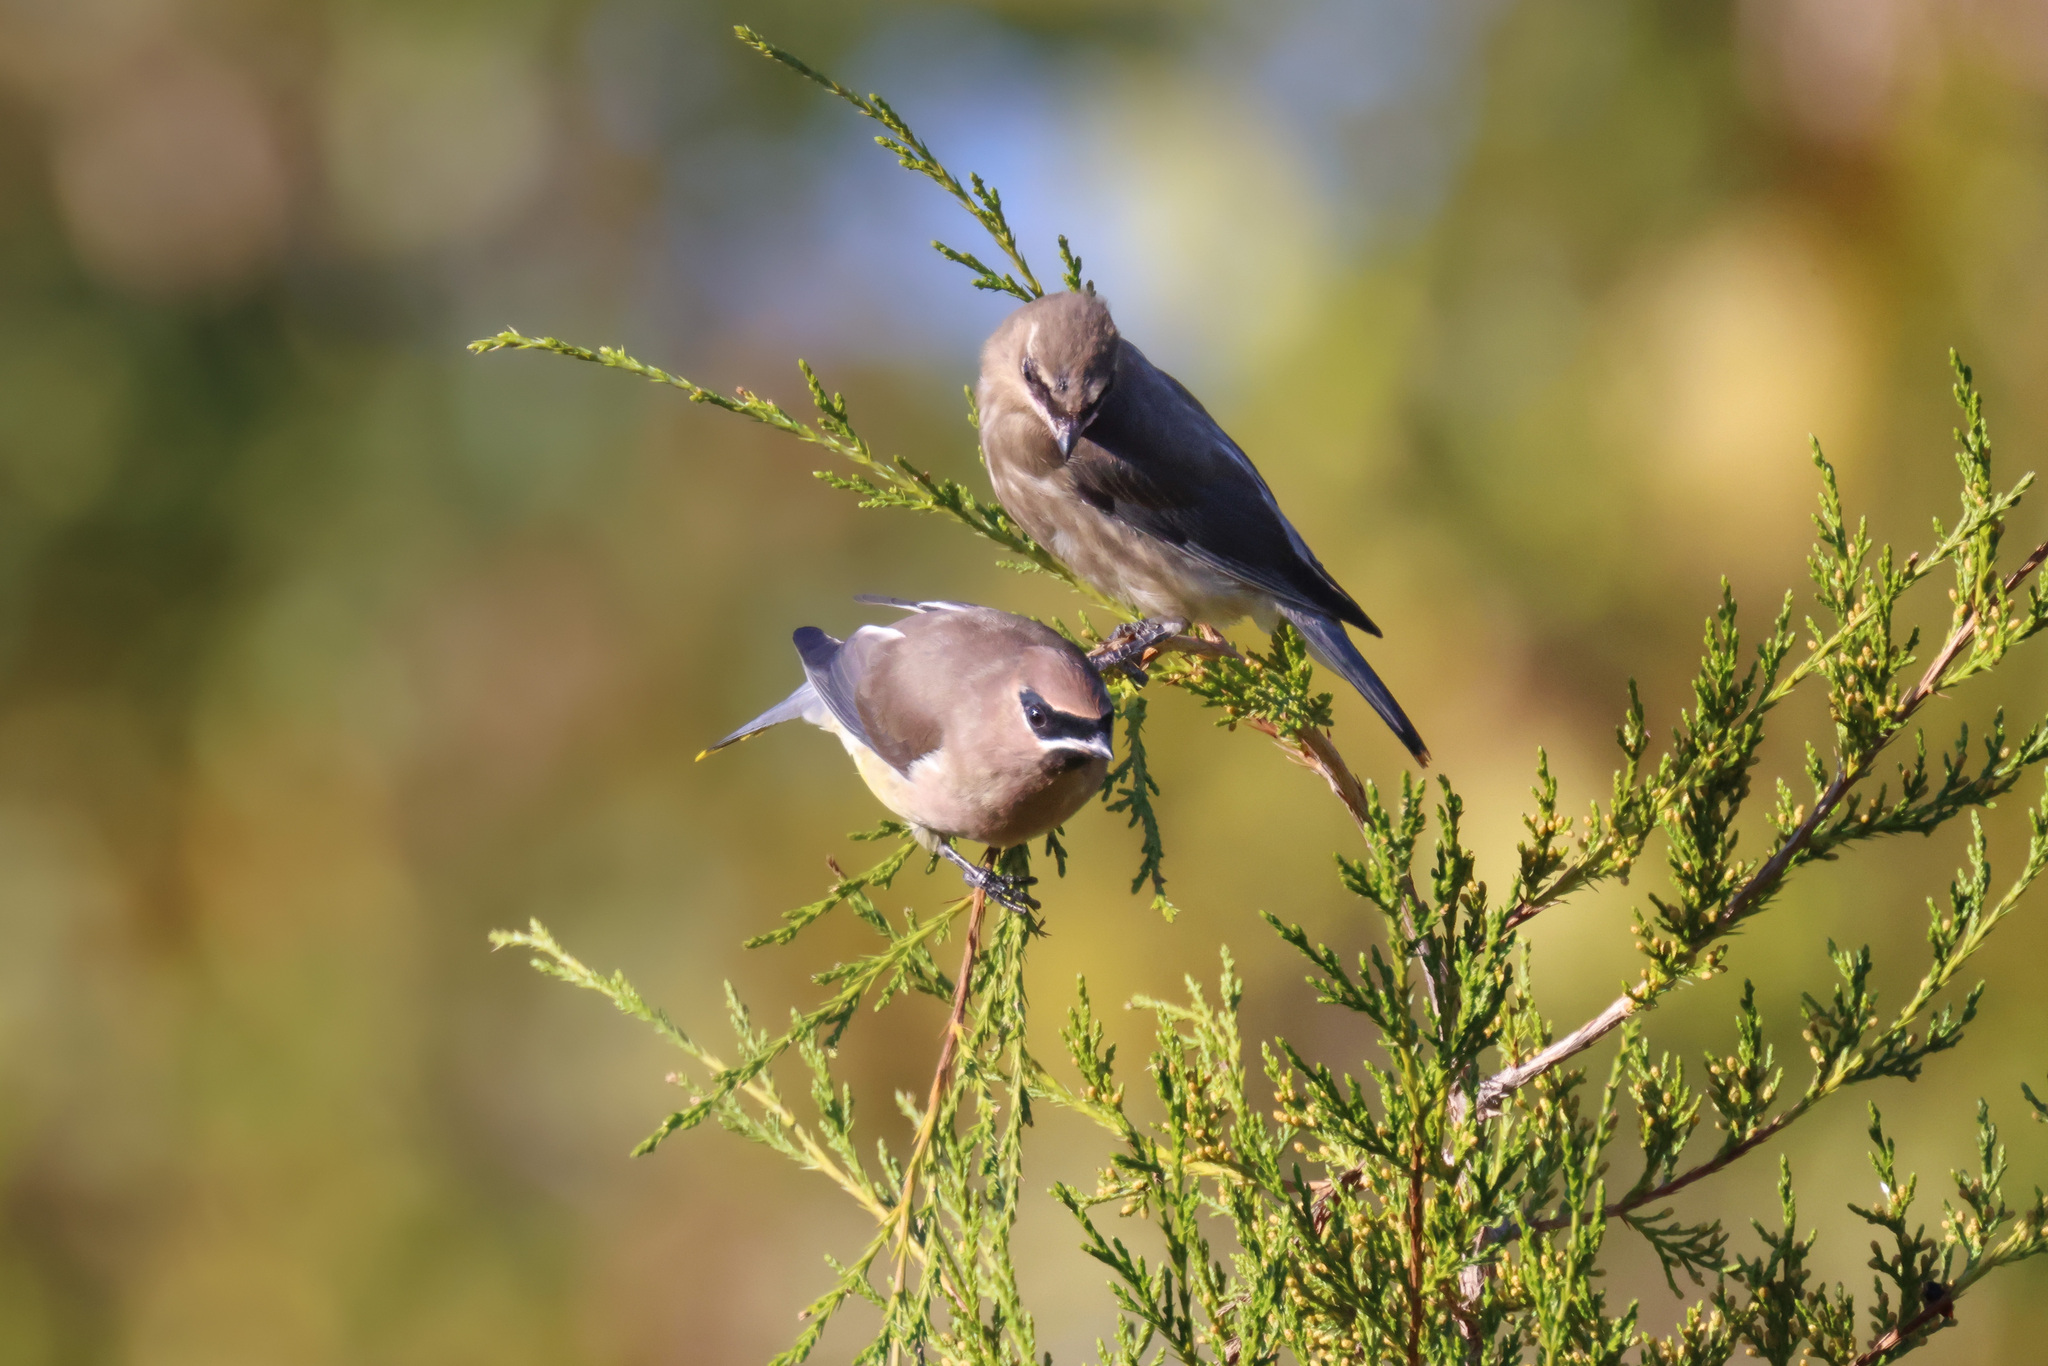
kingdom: Animalia
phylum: Chordata
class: Aves
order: Passeriformes
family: Bombycillidae
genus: Bombycilla
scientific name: Bombycilla cedrorum
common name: Cedar waxwing
